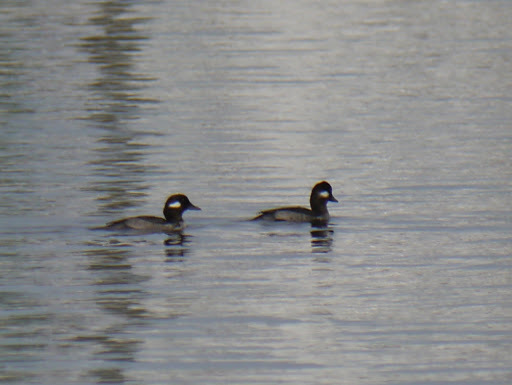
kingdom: Animalia
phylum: Chordata
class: Aves
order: Anseriformes
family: Anatidae
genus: Bucephala
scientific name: Bucephala albeola
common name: Bufflehead
